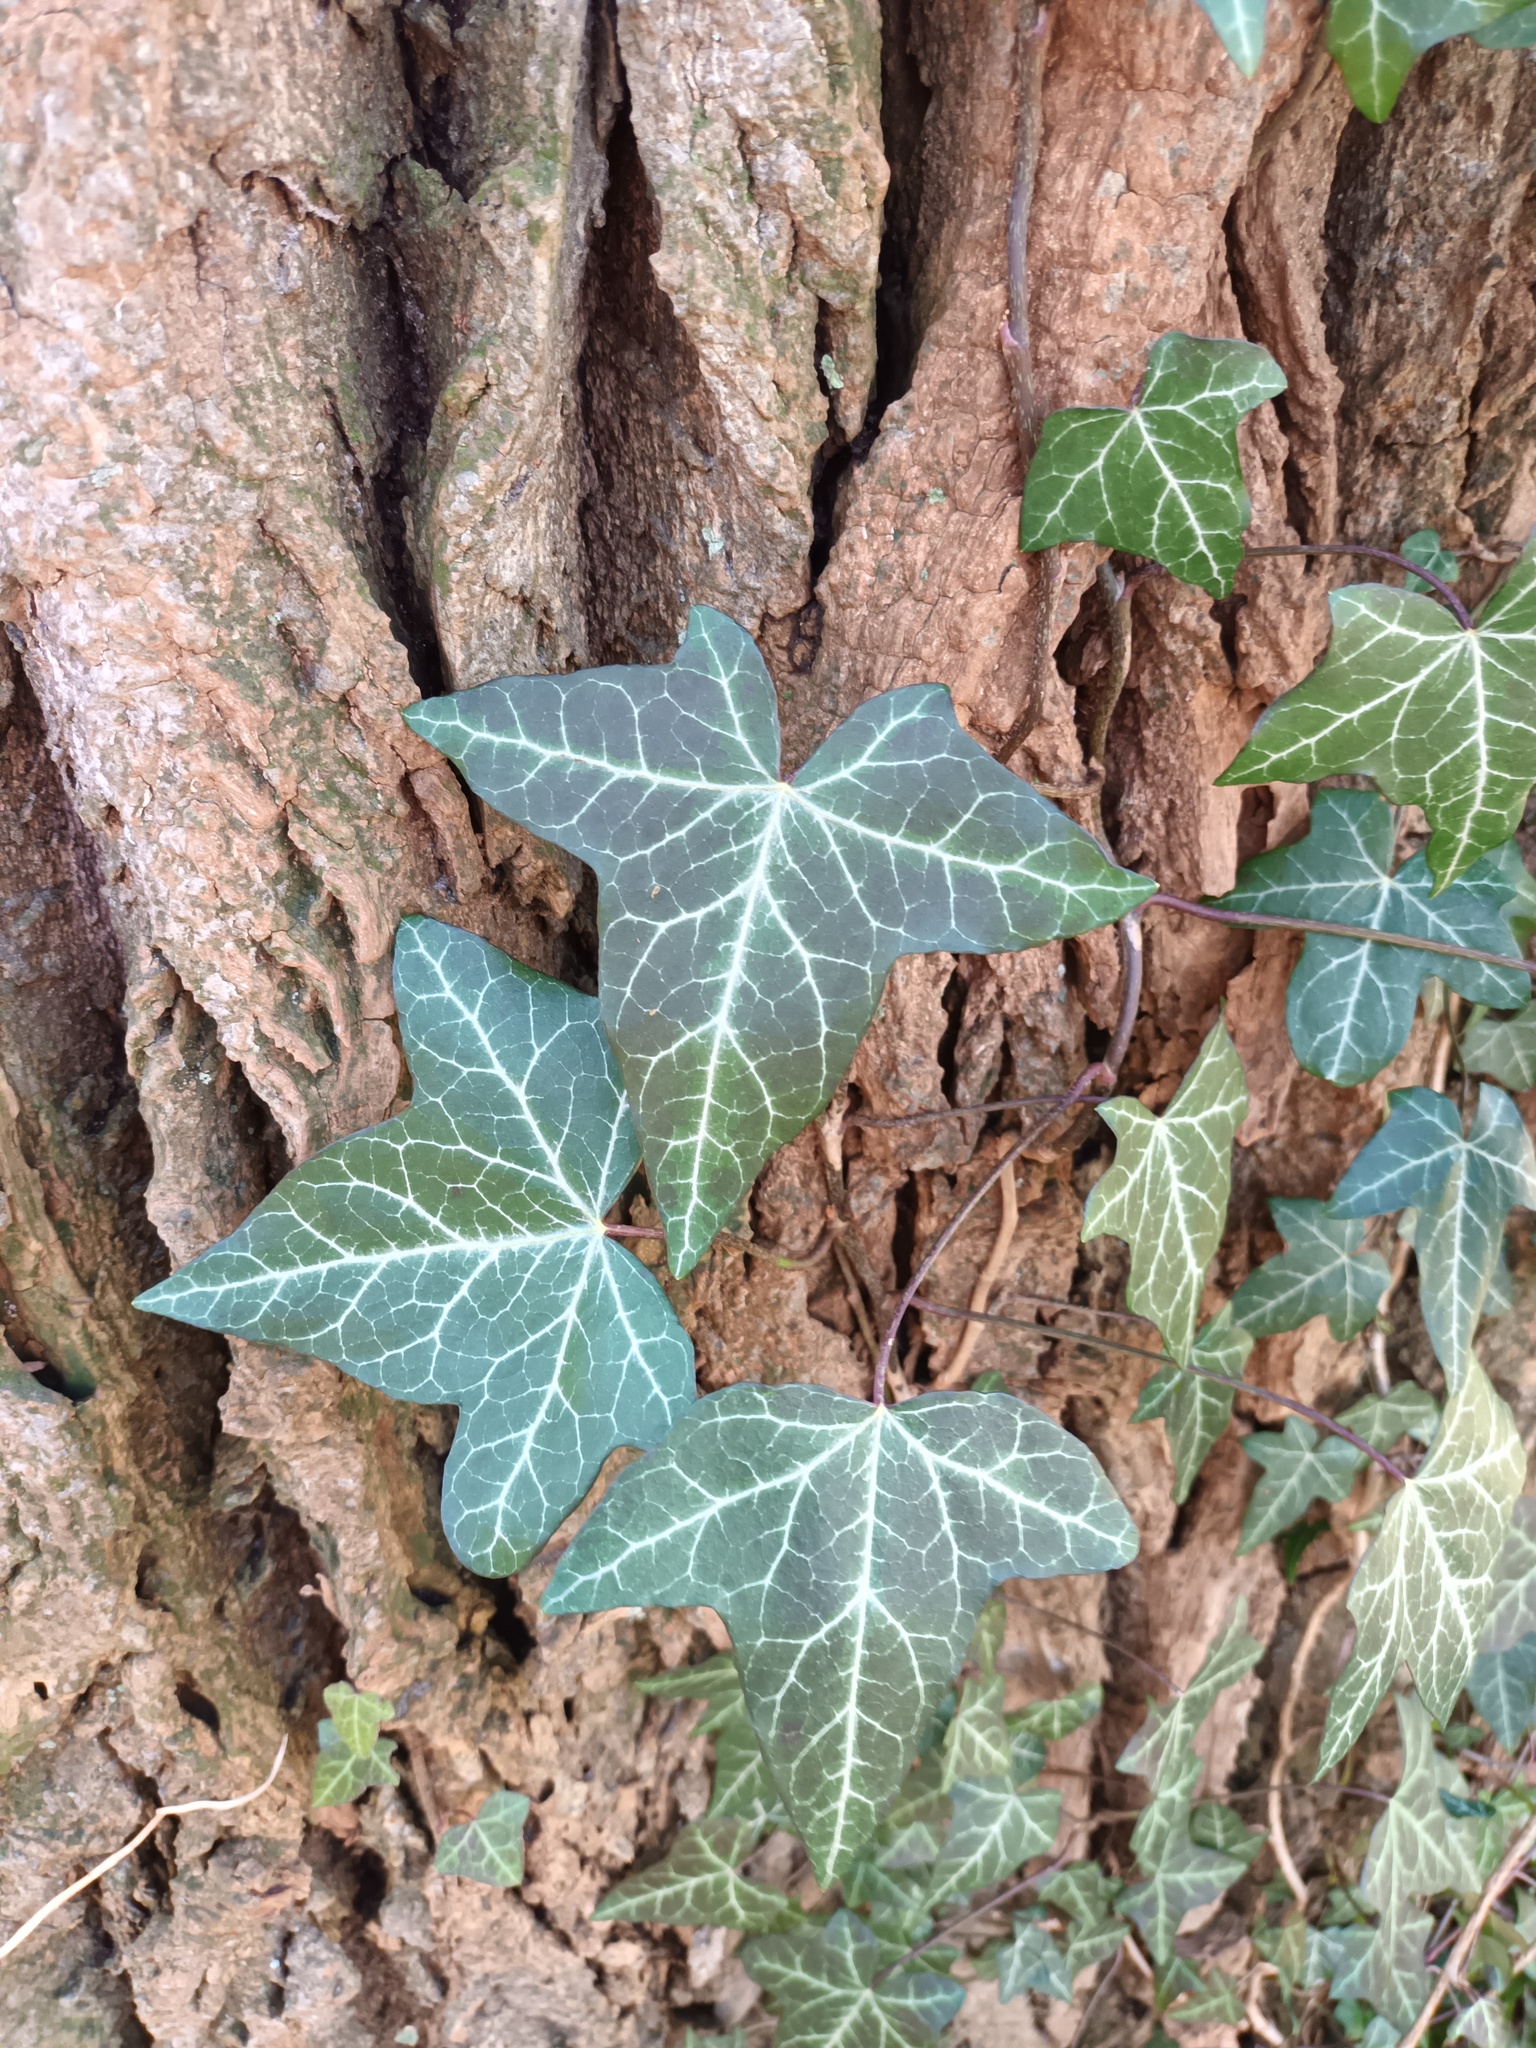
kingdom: Plantae
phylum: Tracheophyta
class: Magnoliopsida
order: Apiales
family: Araliaceae
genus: Hedera
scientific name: Hedera helix
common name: Ivy
